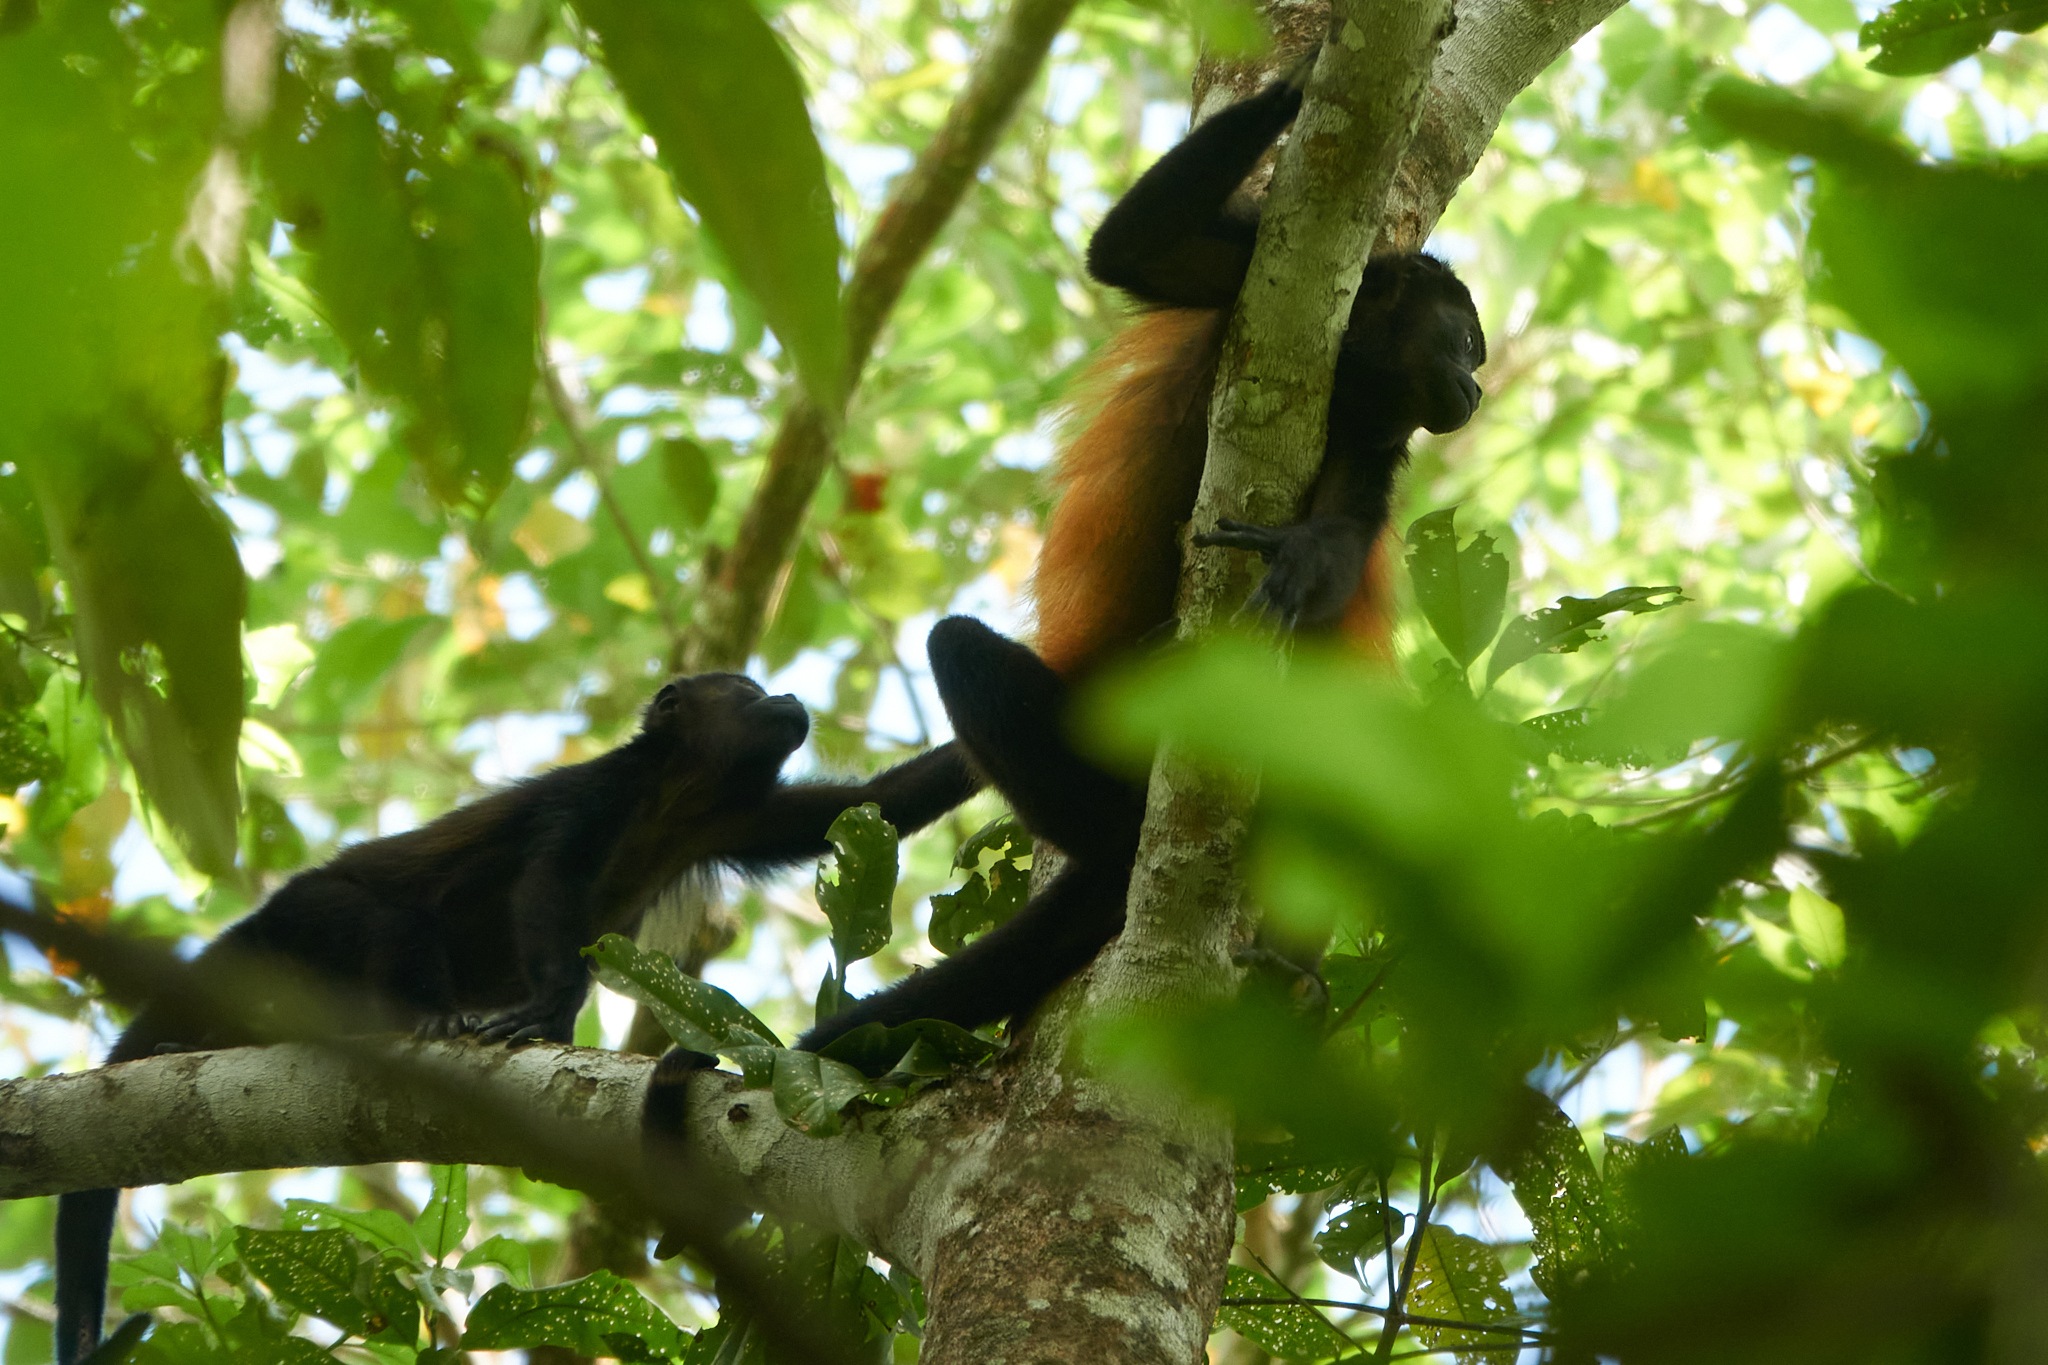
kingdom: Animalia
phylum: Chordata
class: Mammalia
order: Primates
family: Atelidae
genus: Alouatta
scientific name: Alouatta palliata
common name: Mantled howler
